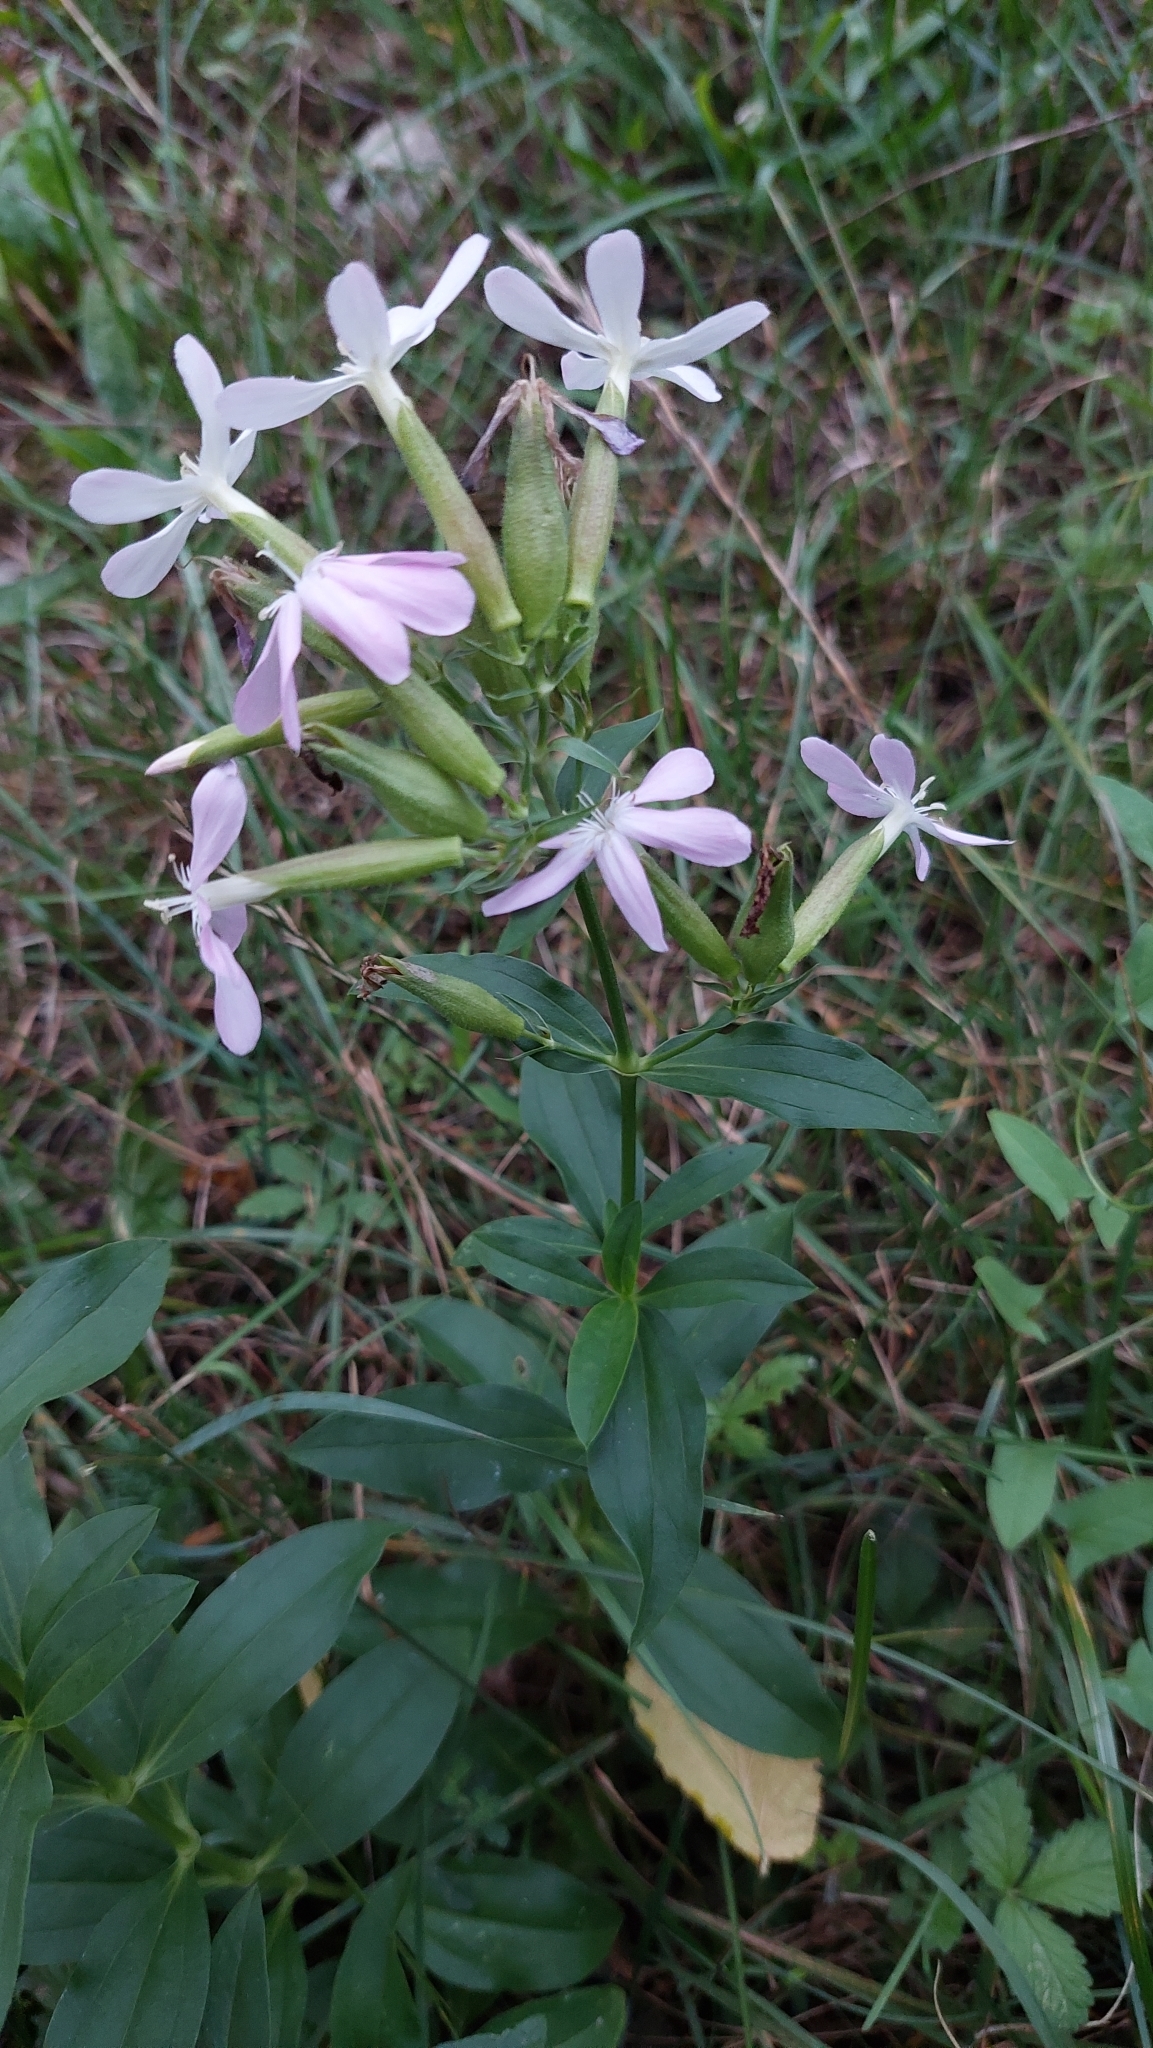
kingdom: Plantae
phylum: Tracheophyta
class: Magnoliopsida
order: Caryophyllales
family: Caryophyllaceae
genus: Saponaria
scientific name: Saponaria officinalis
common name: Soapwort
